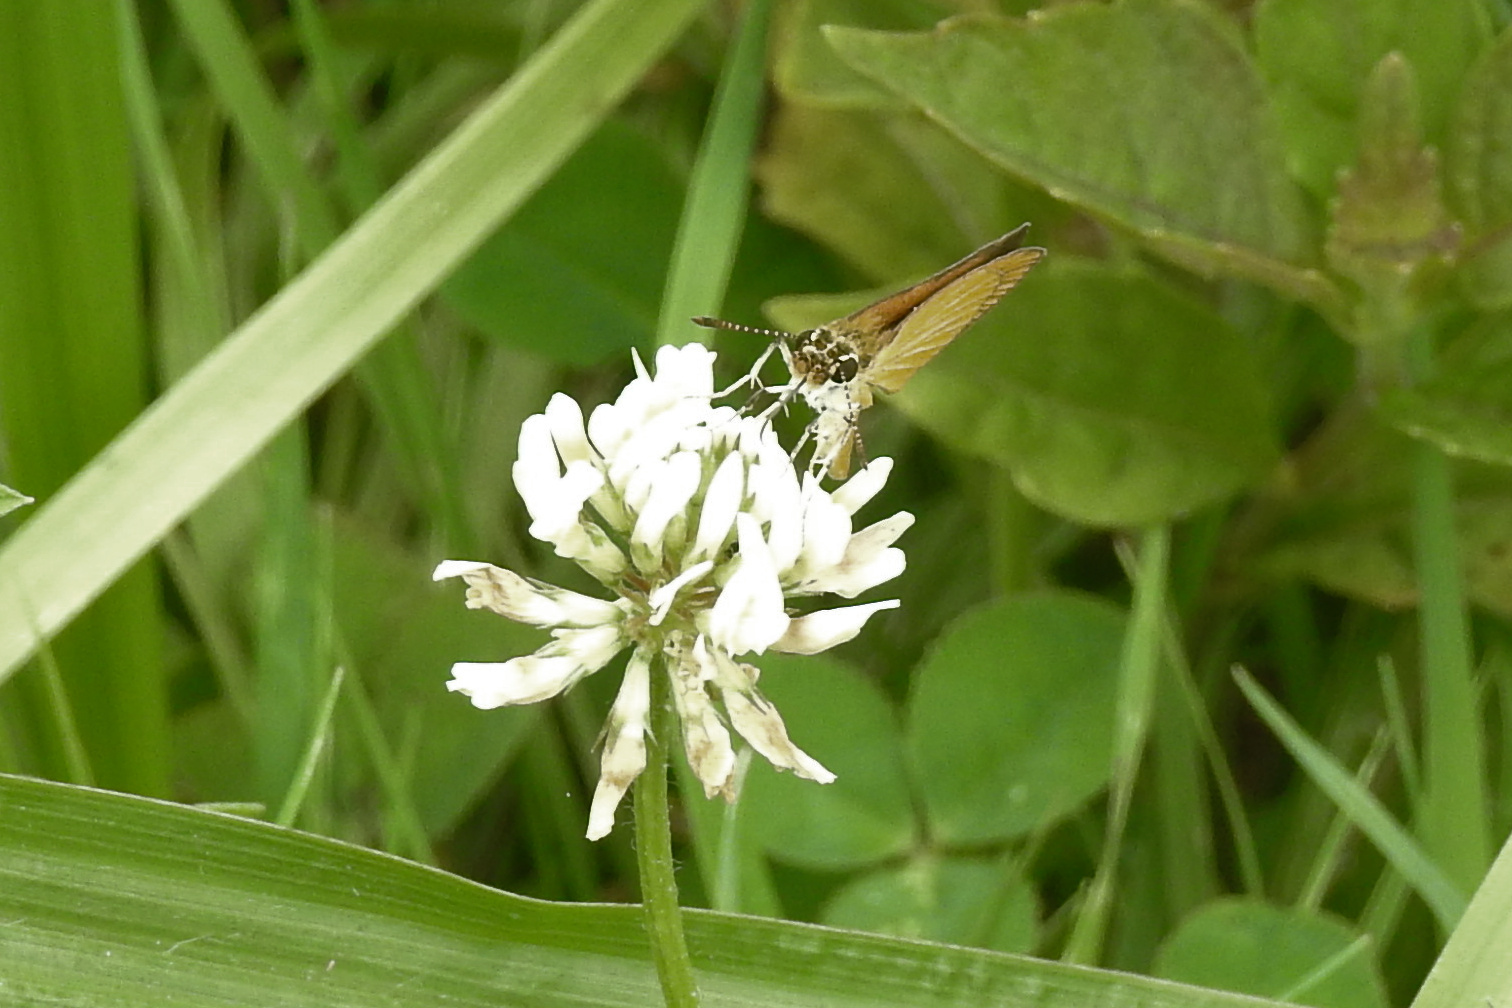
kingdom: Animalia
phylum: Arthropoda
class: Insecta
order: Lepidoptera
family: Hesperiidae
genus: Ancyloxypha
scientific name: Ancyloxypha numitor
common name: Least skipper
